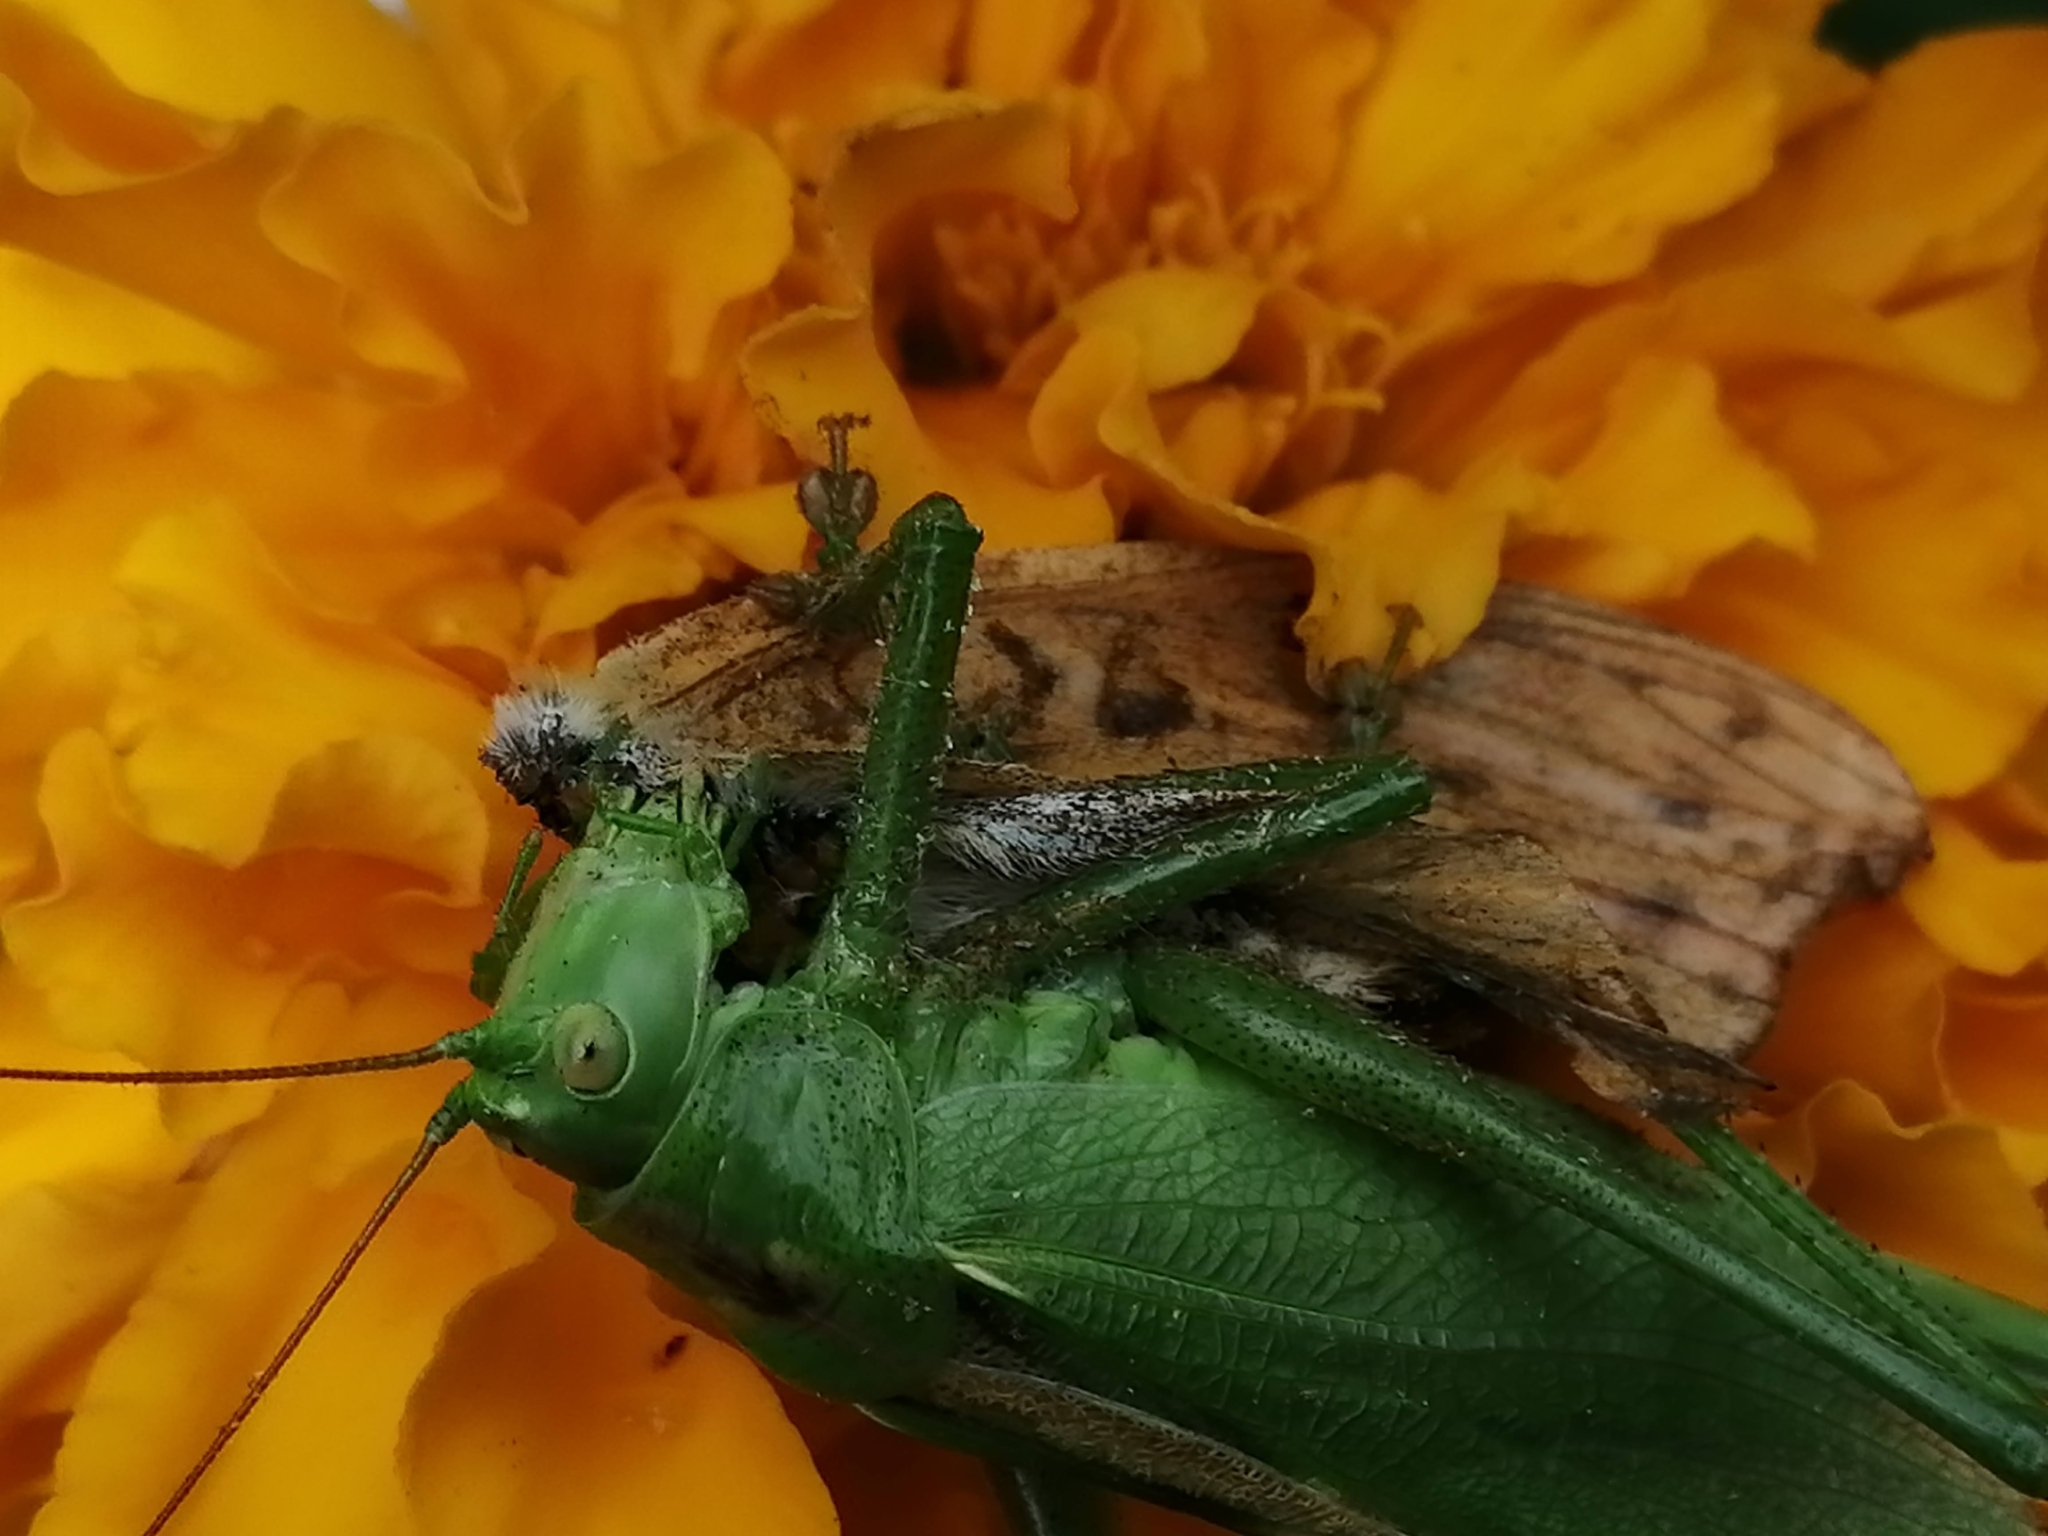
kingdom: Animalia
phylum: Arthropoda
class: Insecta
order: Orthoptera
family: Tettigoniidae
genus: Tettigonia
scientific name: Tettigonia cantans
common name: Upland green bush-cricket
